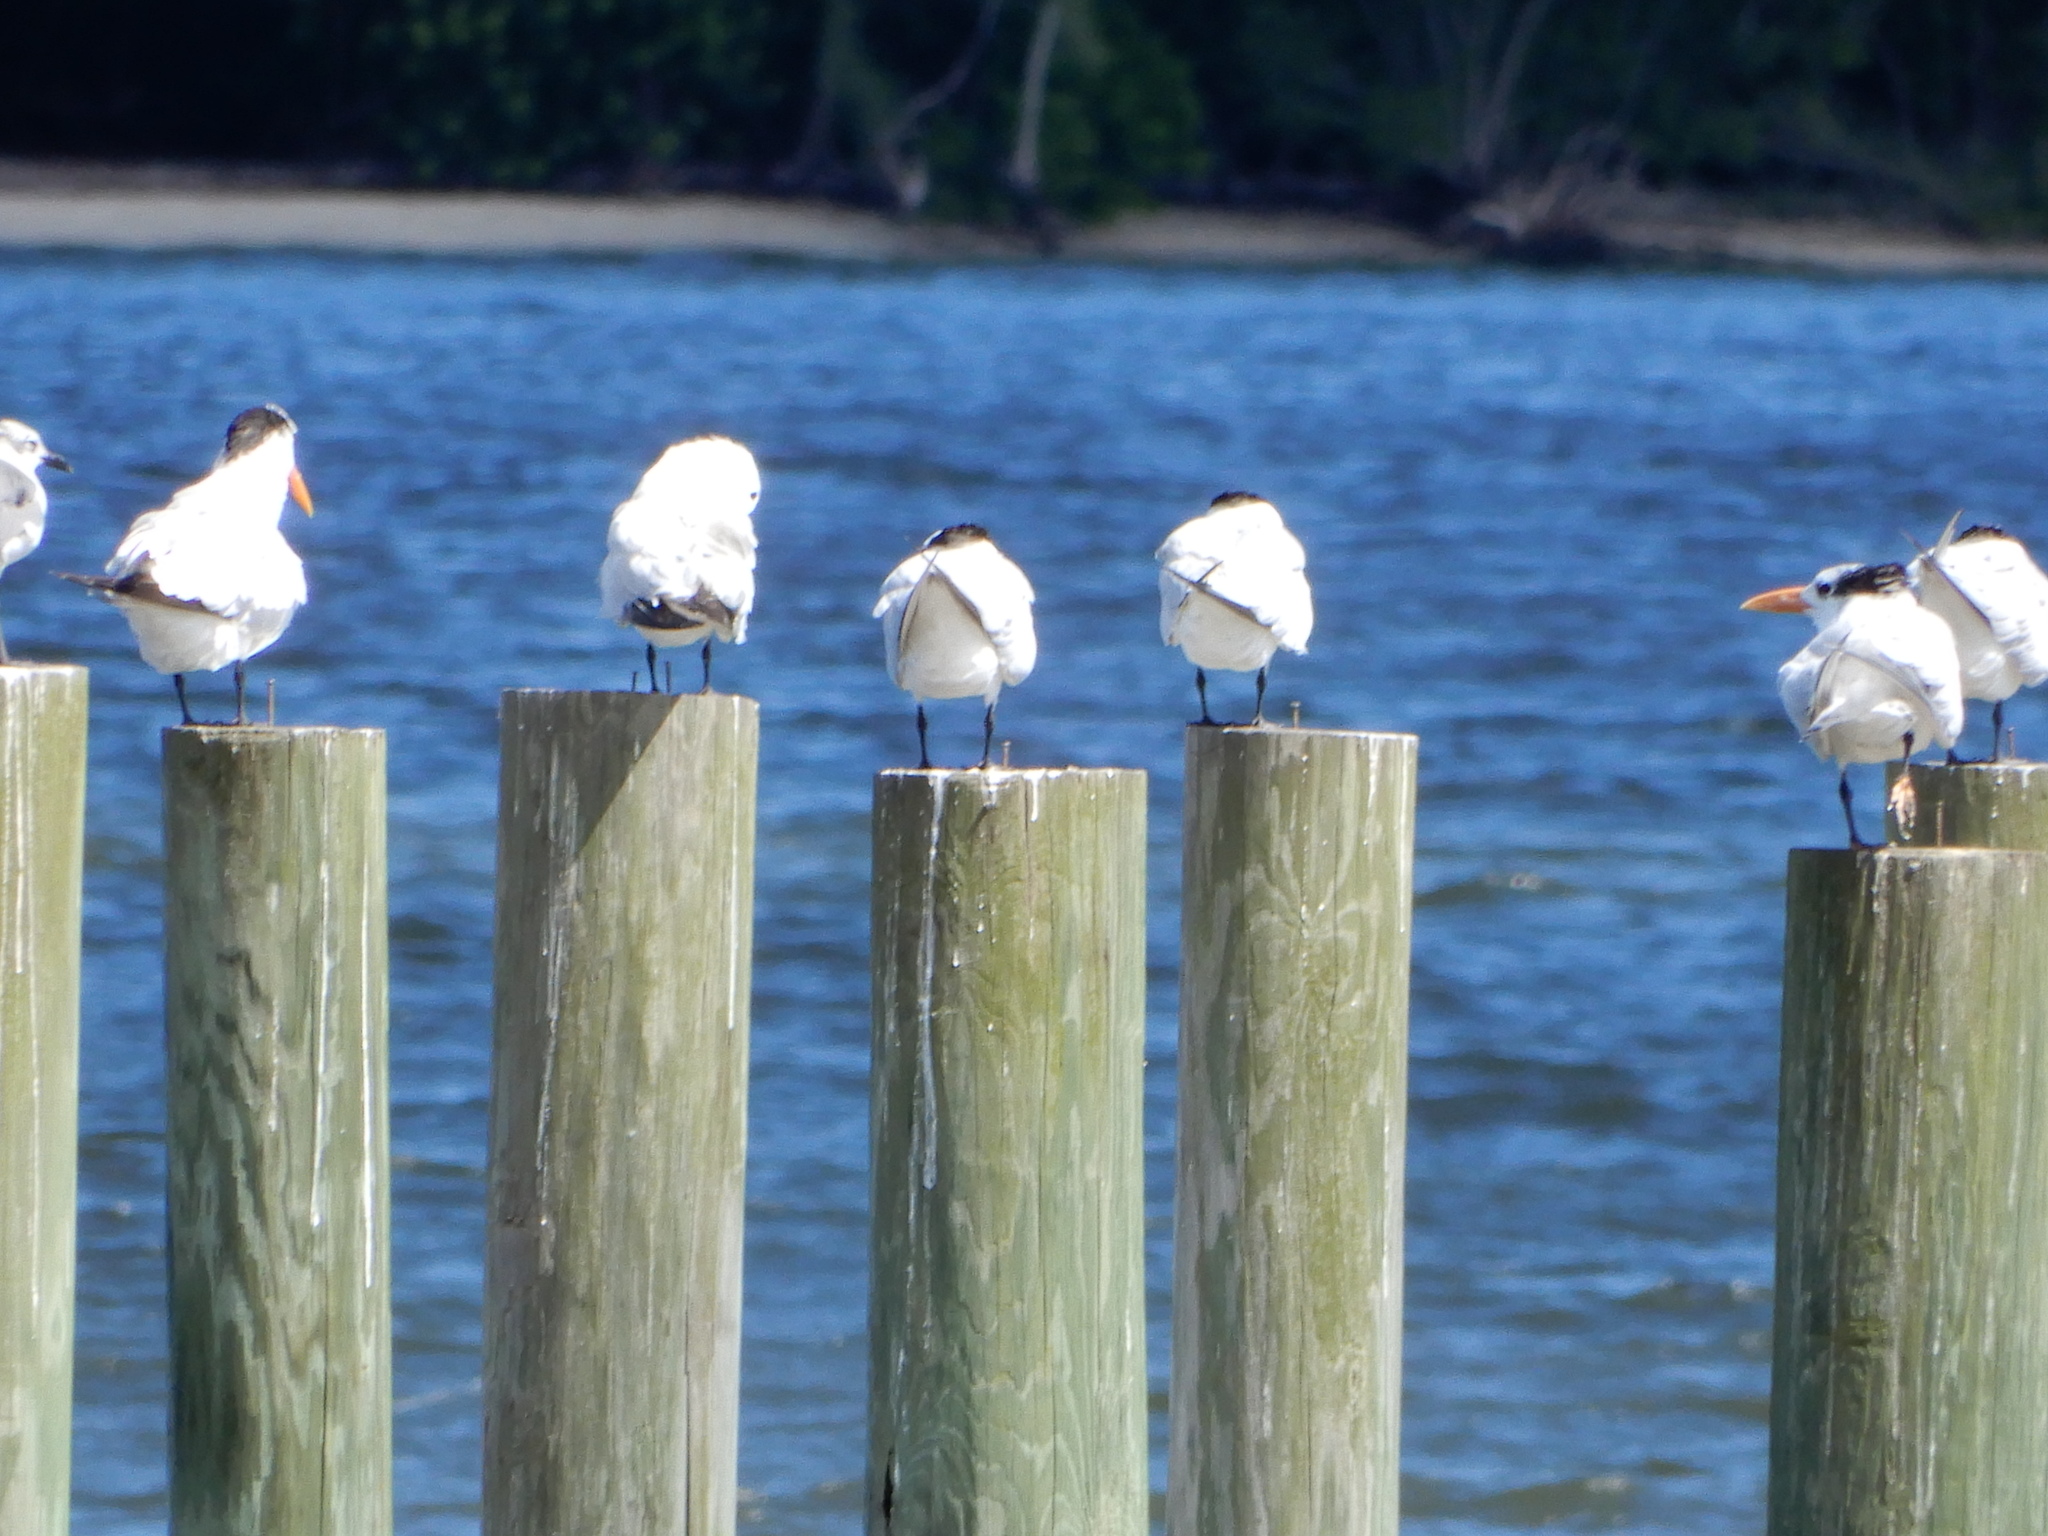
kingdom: Animalia
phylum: Chordata
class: Aves
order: Charadriiformes
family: Laridae
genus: Thalasseus
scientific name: Thalasseus maximus
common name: Royal tern
